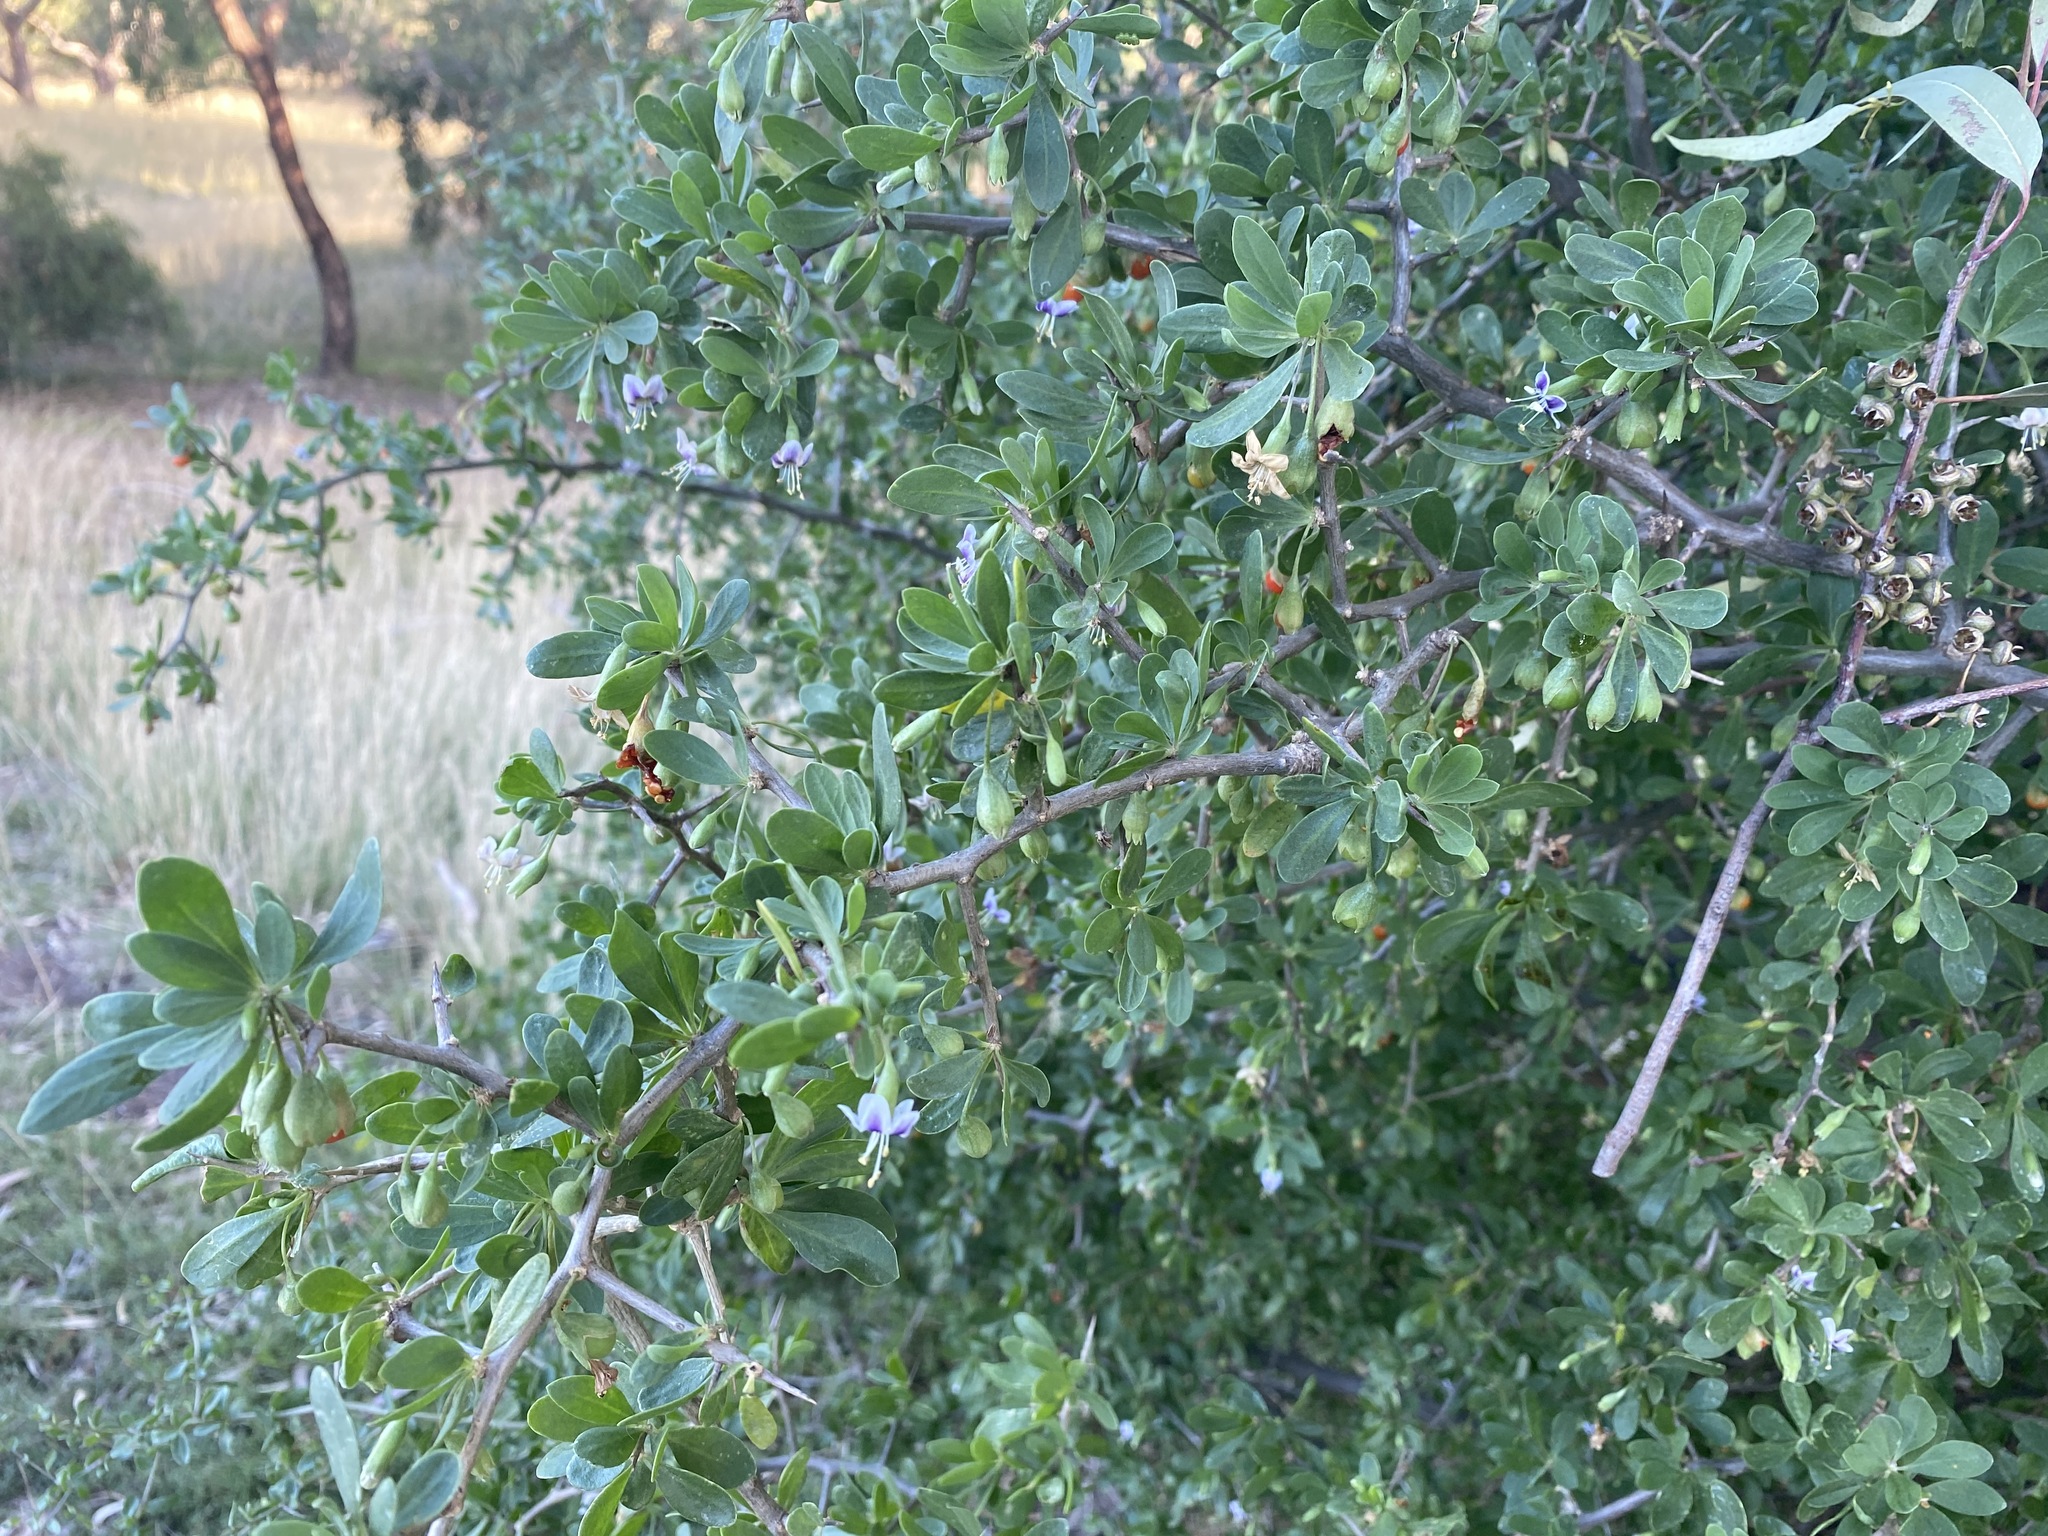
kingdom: Plantae
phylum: Tracheophyta
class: Magnoliopsida
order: Solanales
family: Solanaceae
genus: Lycium
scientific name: Lycium ferocissimum
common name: African boxthorn
